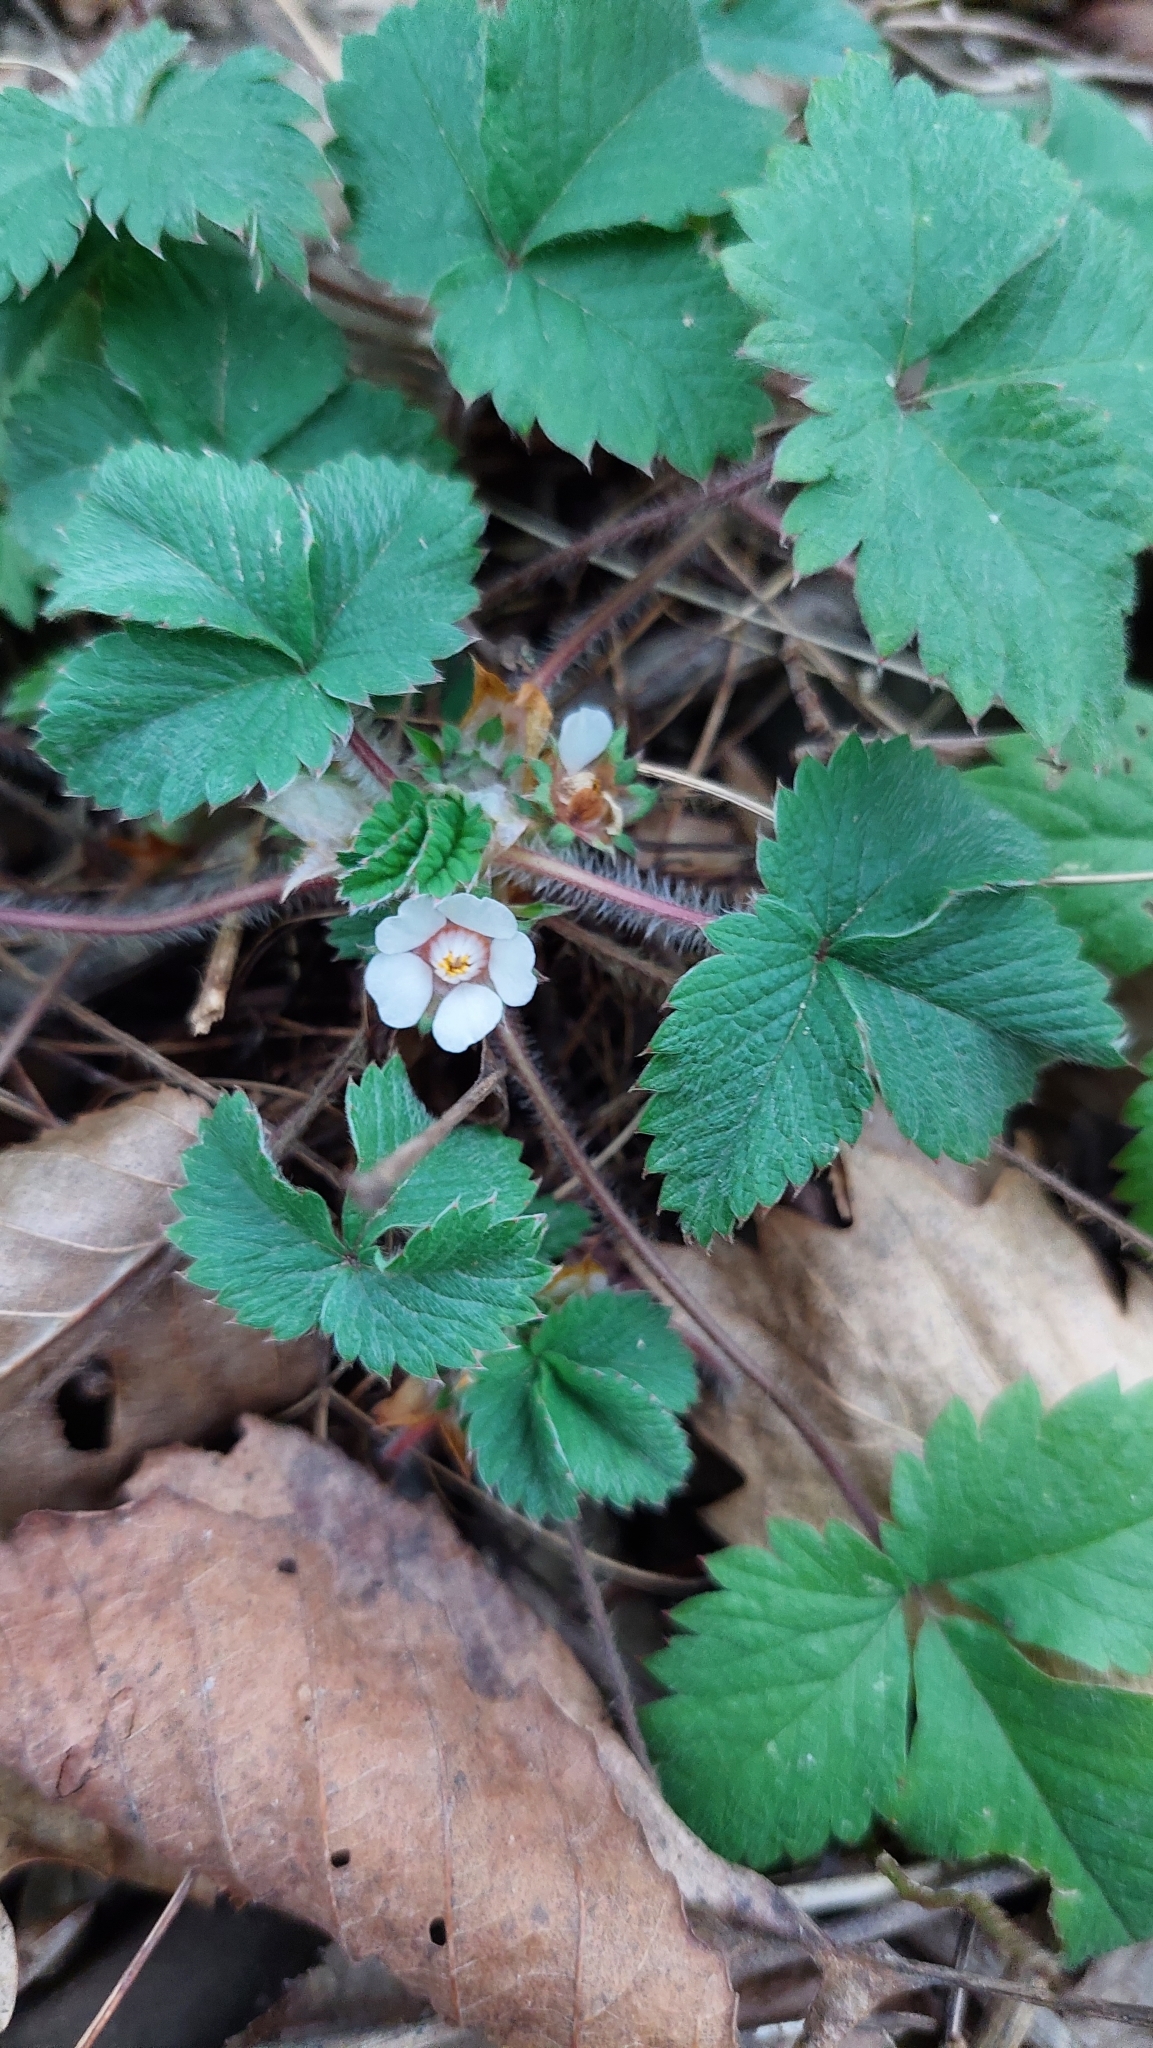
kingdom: Plantae
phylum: Tracheophyta
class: Magnoliopsida
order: Rosales
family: Rosaceae
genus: Potentilla
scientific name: Potentilla micrantha
